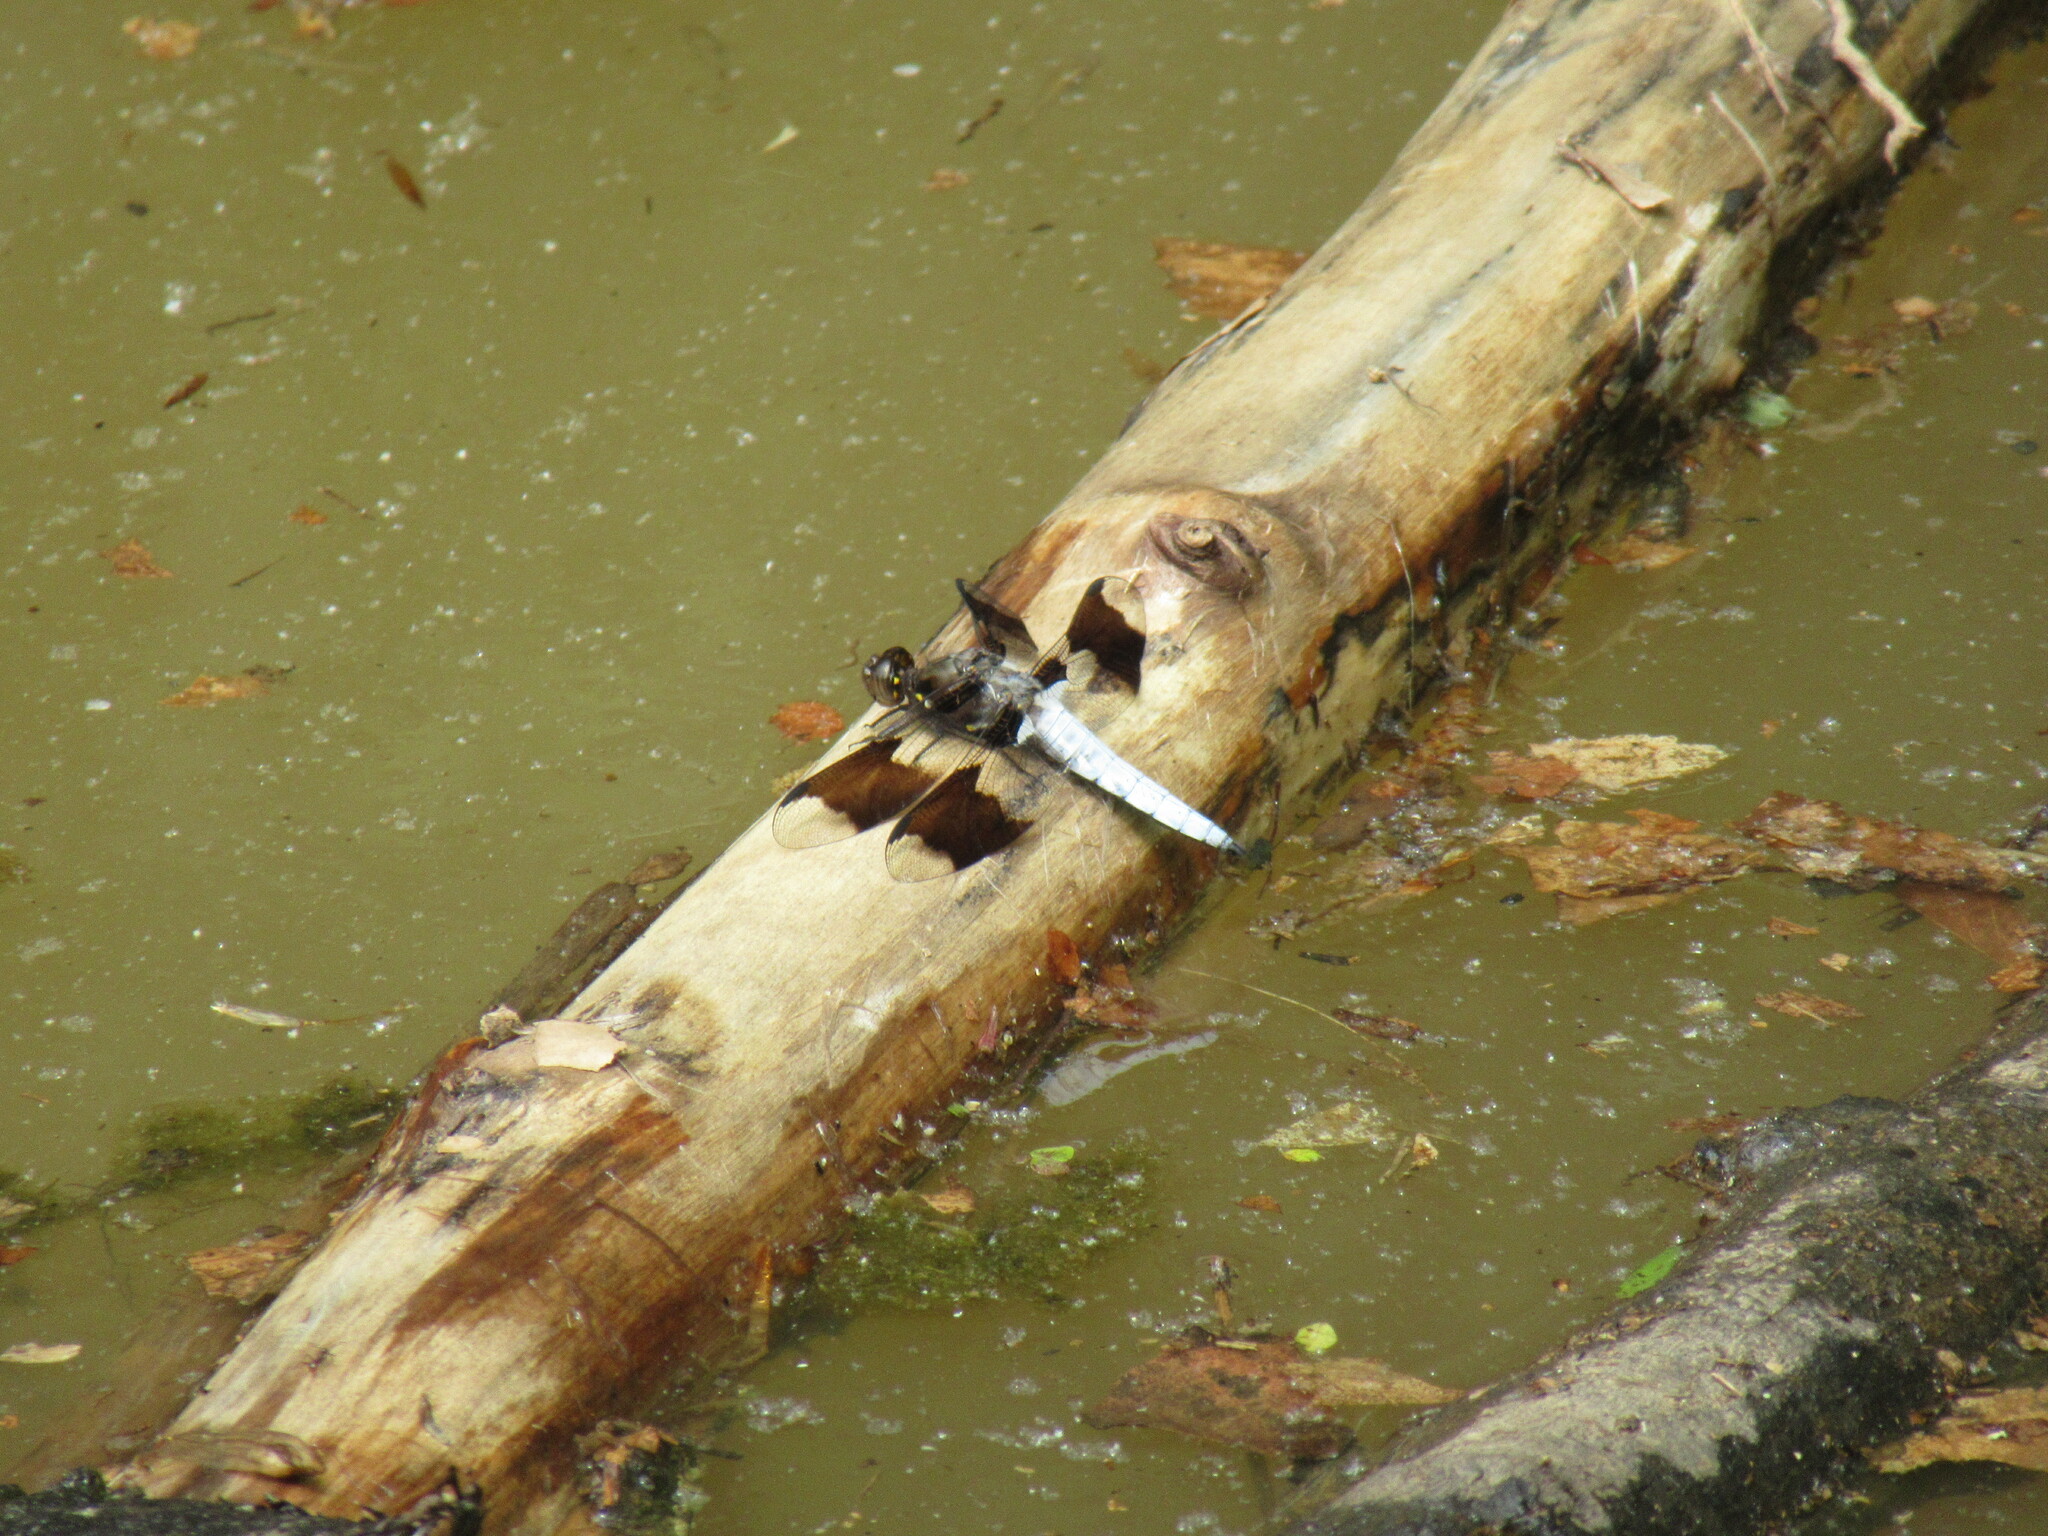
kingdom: Animalia
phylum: Arthropoda
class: Insecta
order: Odonata
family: Libellulidae
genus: Plathemis
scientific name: Plathemis lydia
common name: Common whitetail
